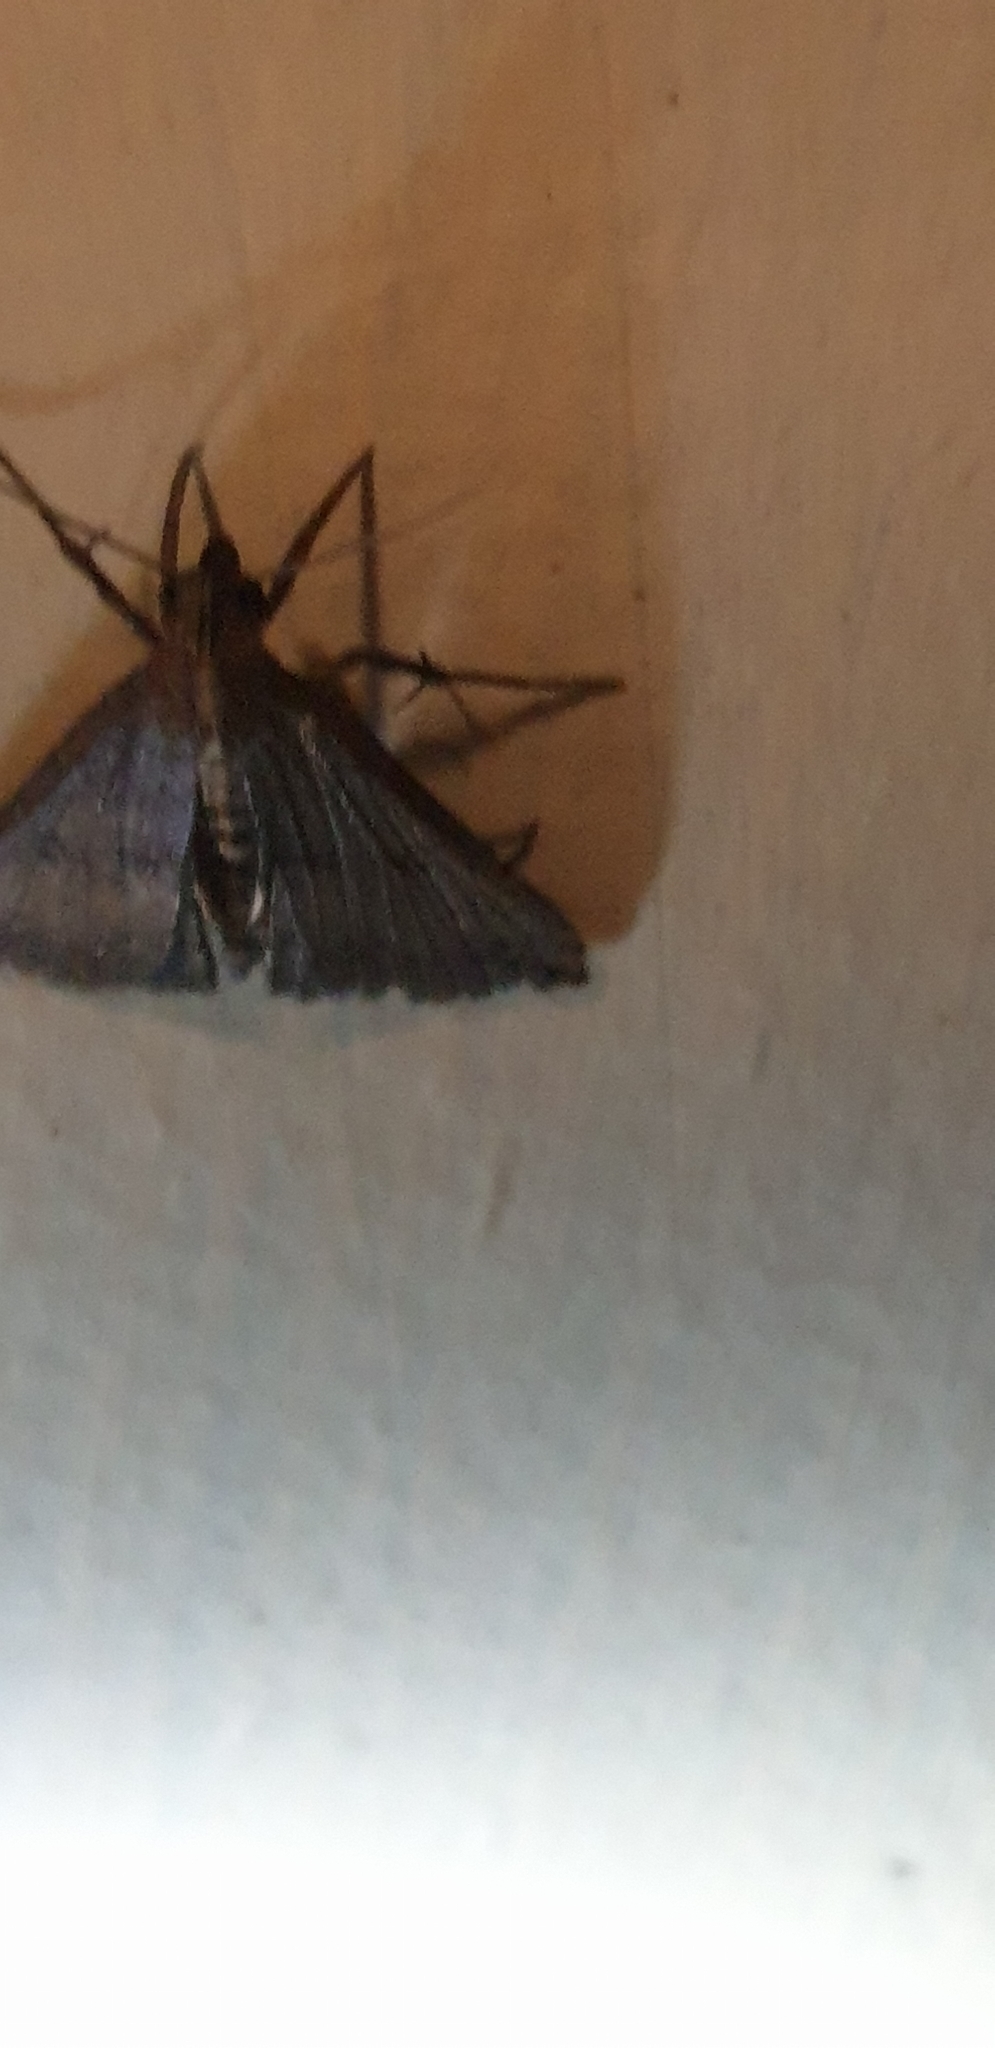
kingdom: Animalia
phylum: Arthropoda
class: Insecta
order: Lepidoptera
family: Erebidae
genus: Hypena
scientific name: Hypena umbrifera
